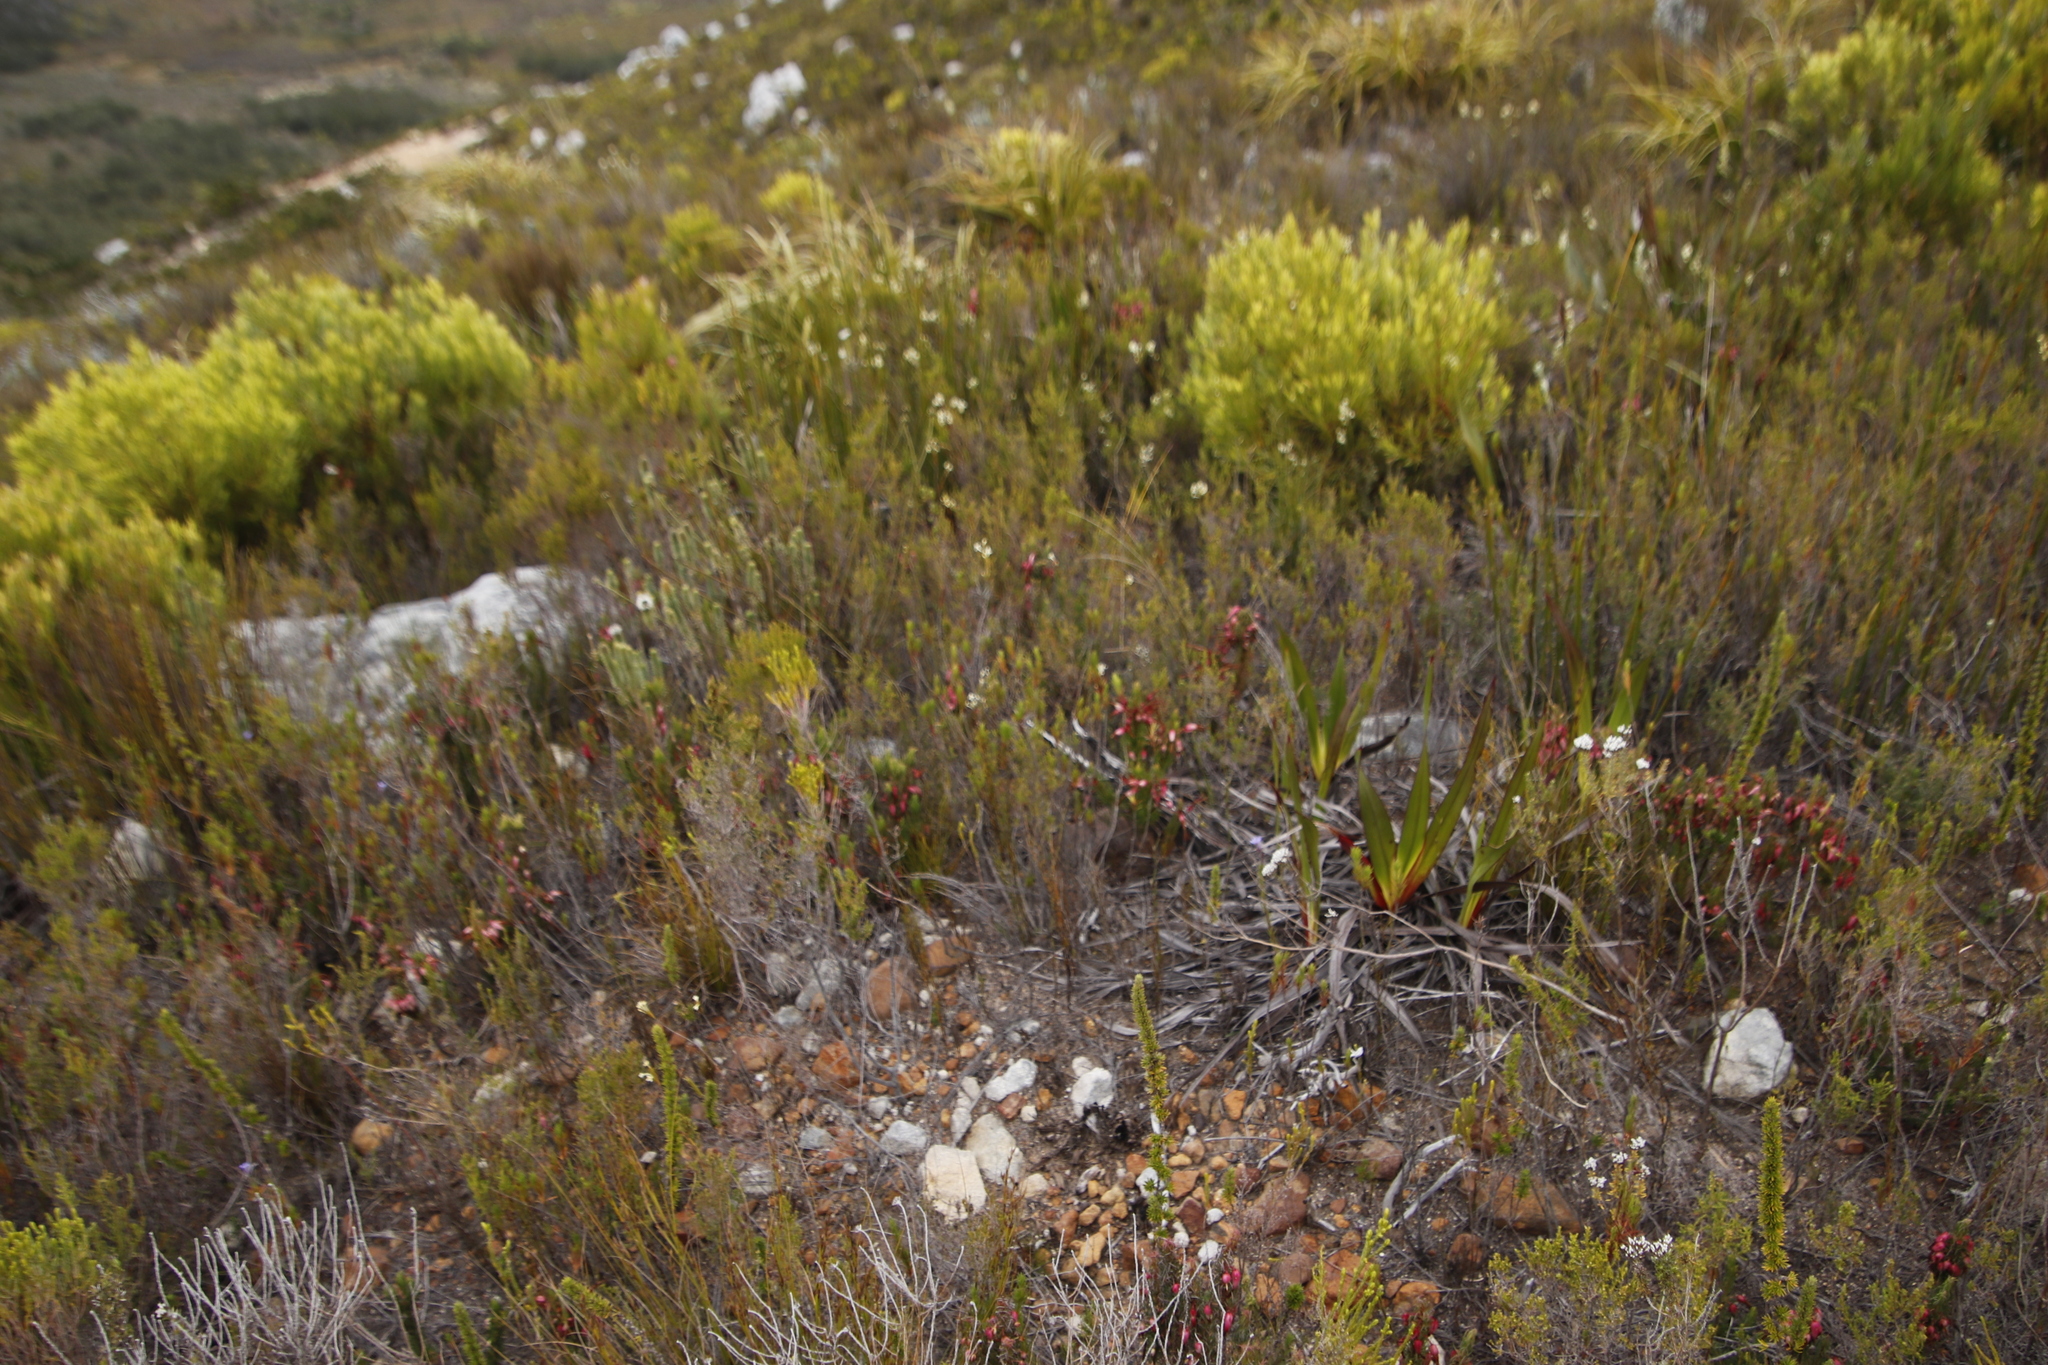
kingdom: Plantae
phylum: Tracheophyta
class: Magnoliopsida
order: Ericales
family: Ericaceae
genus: Erica
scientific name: Erica plukenetii
